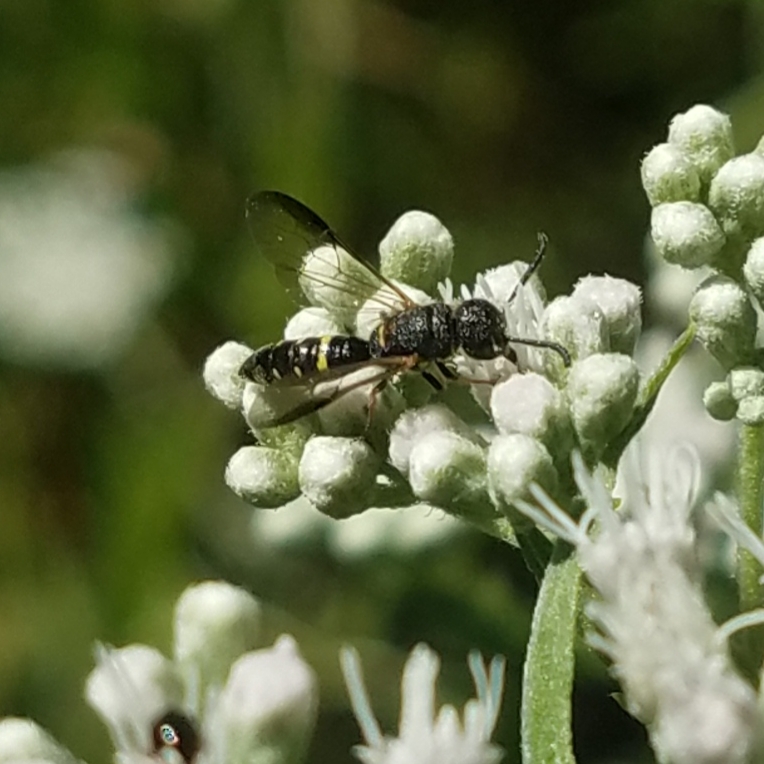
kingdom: Animalia
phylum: Arthropoda
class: Insecta
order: Hymenoptera
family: Sapygidae
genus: Sapyga
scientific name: Sapyga louisi
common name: Louis's club-horned cuckoo wasp
